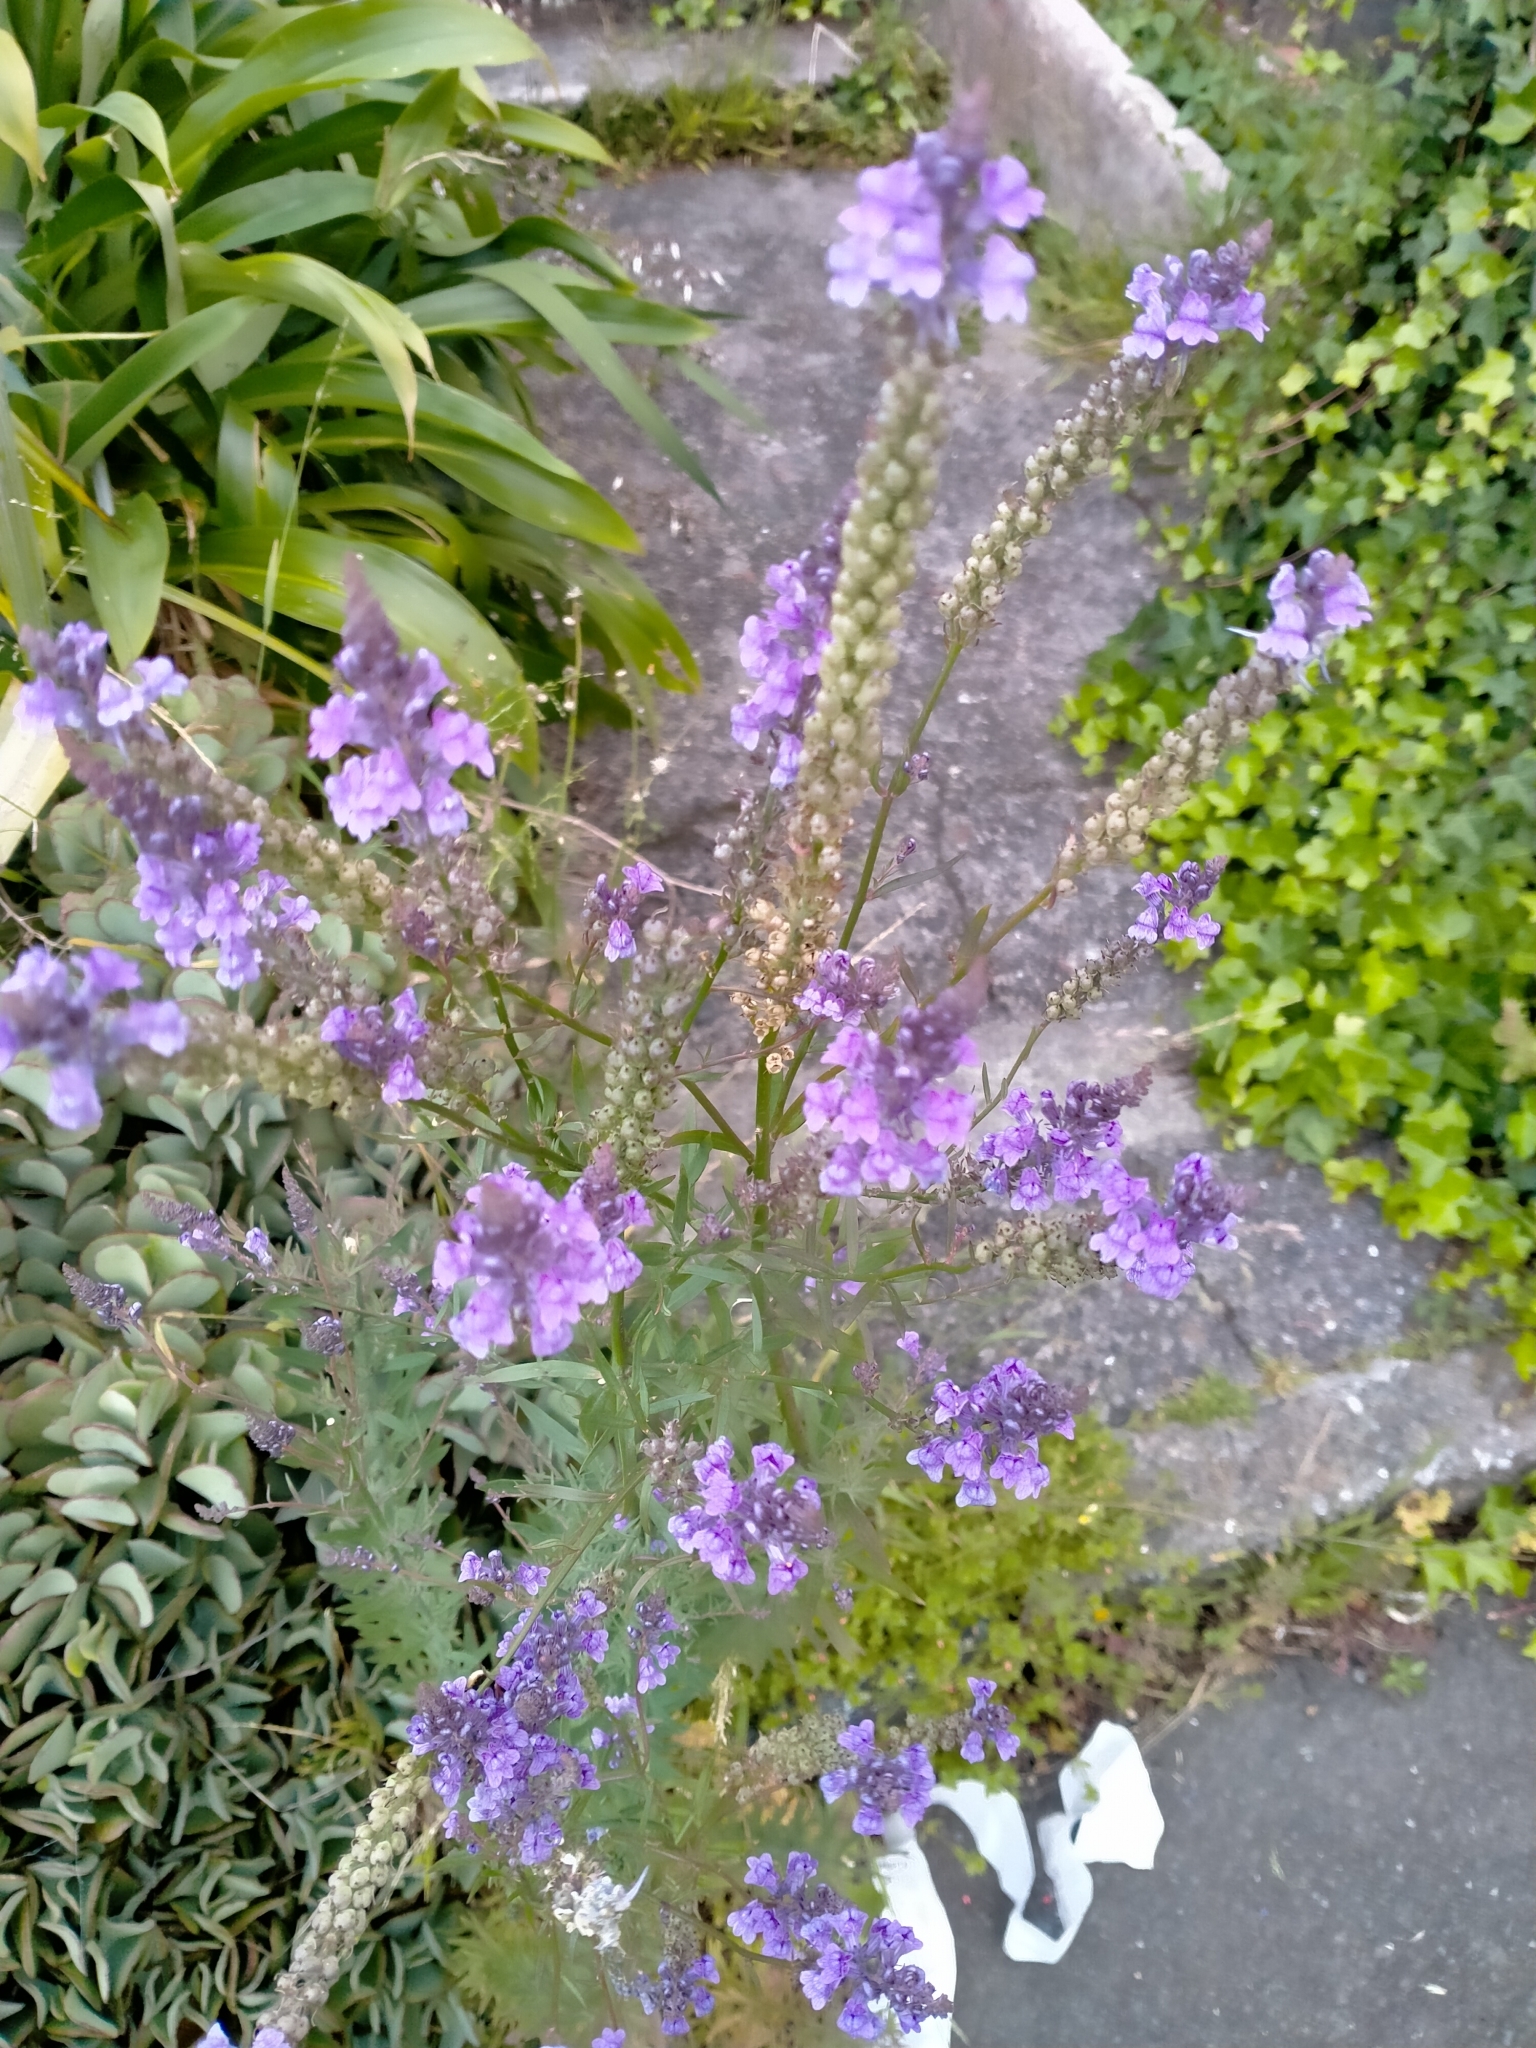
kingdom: Plantae
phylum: Tracheophyta
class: Magnoliopsida
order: Lamiales
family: Plantaginaceae
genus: Linaria
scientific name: Linaria purpurea
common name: Purple toadflax
